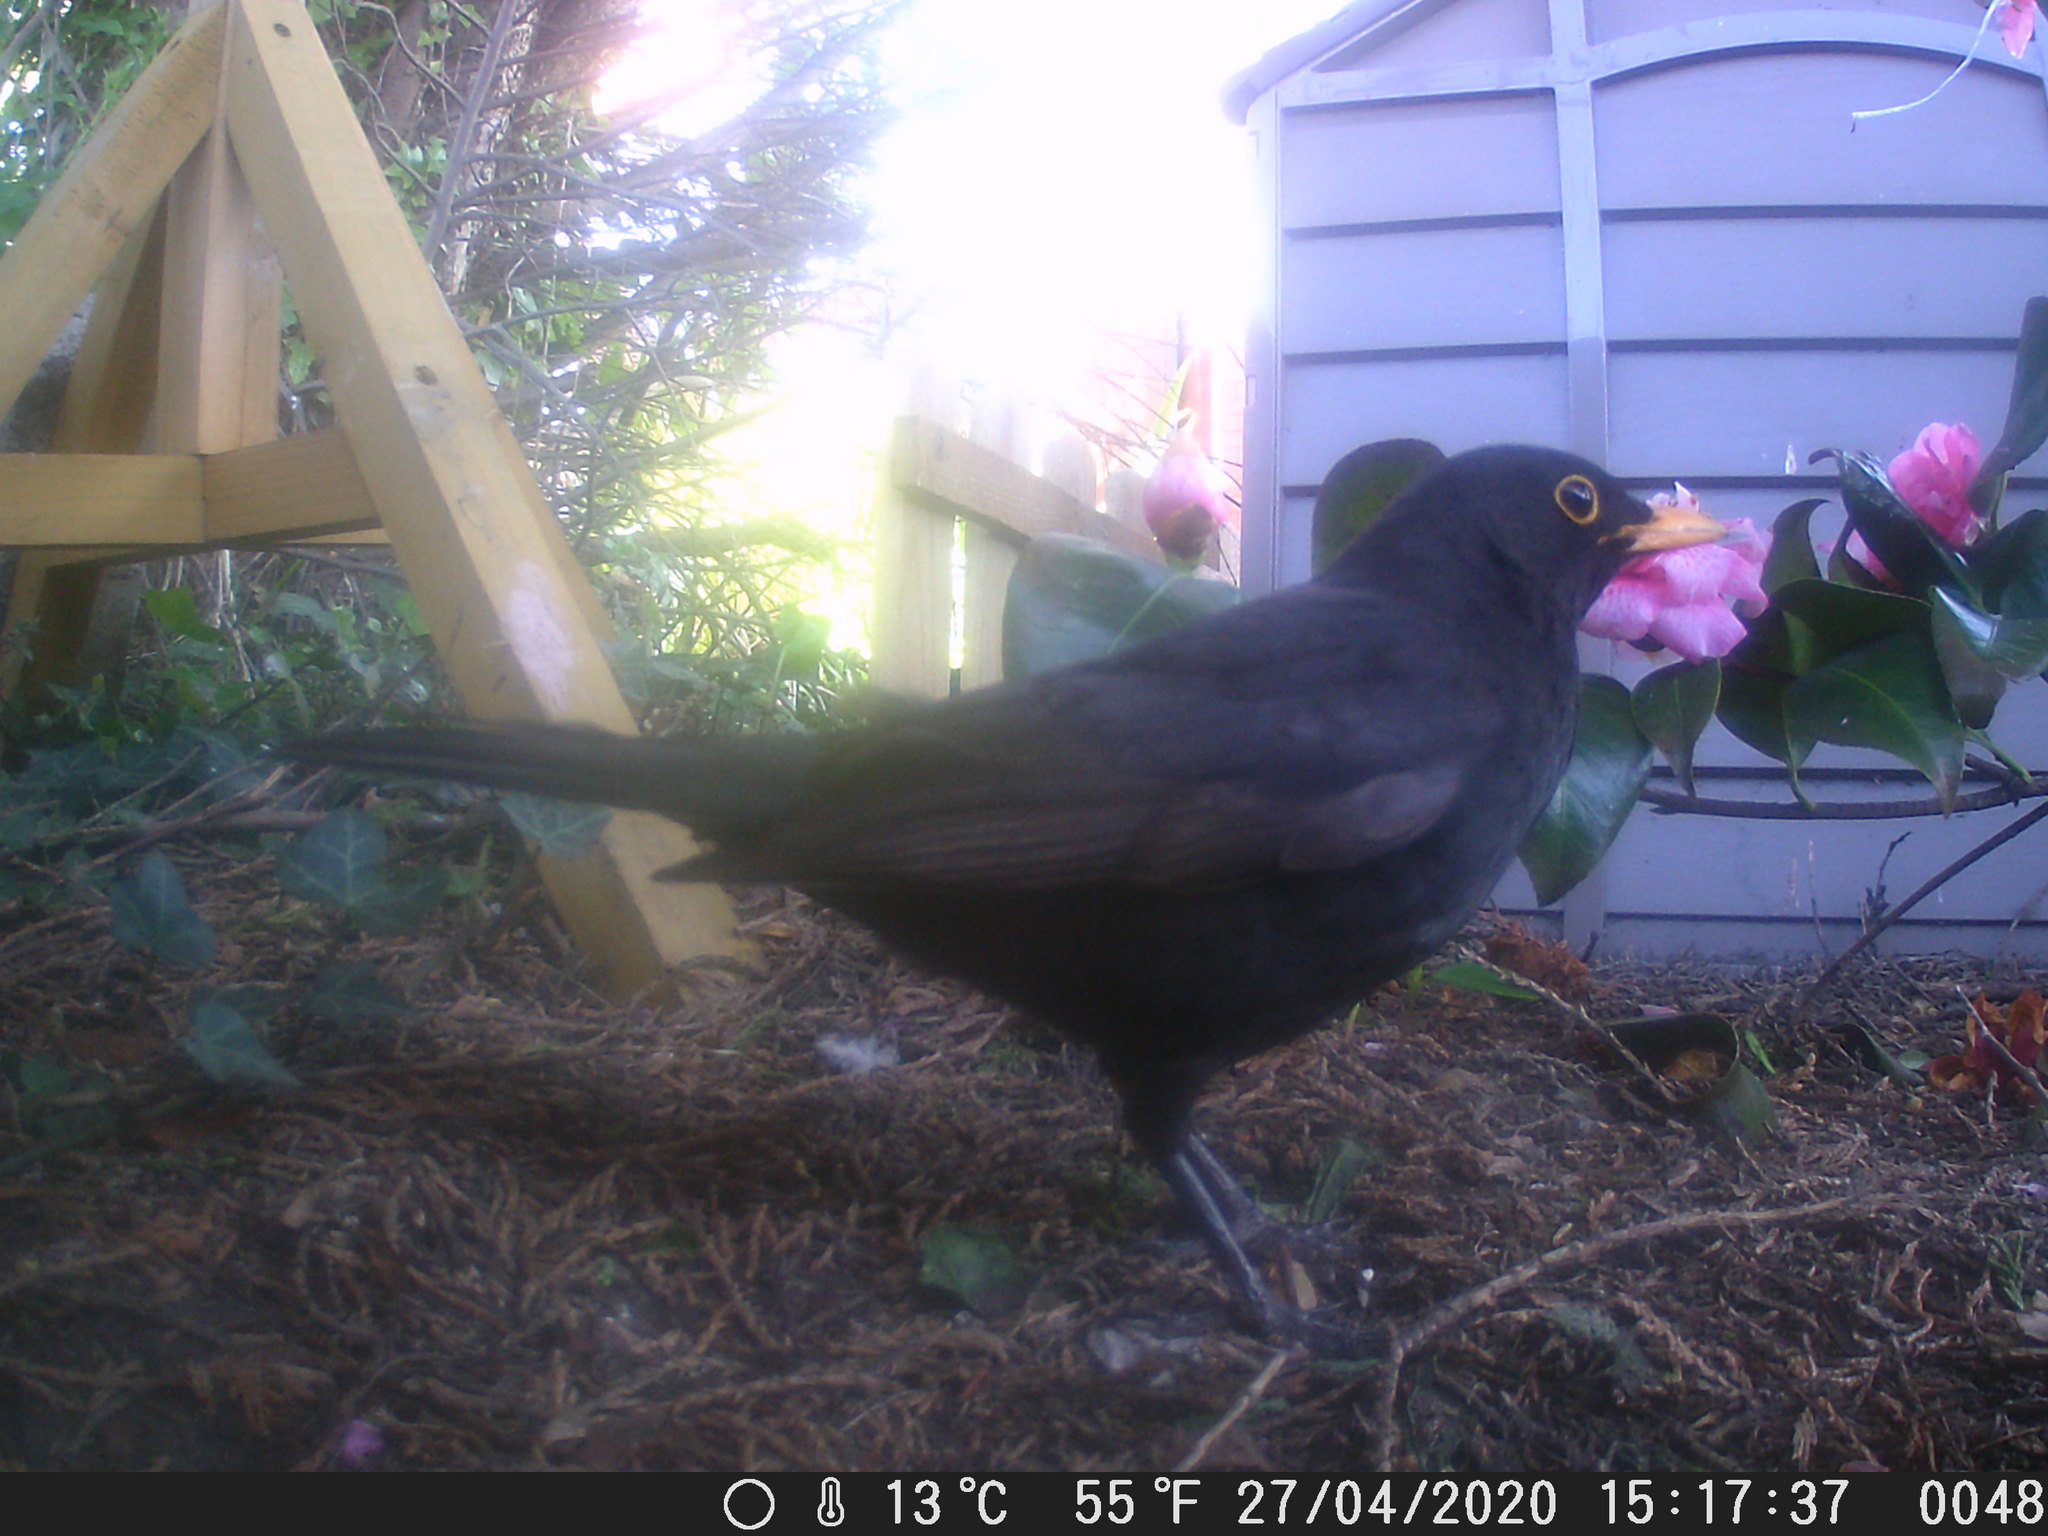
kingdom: Animalia
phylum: Chordata
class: Aves
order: Passeriformes
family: Turdidae
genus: Turdus
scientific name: Turdus merula
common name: Common blackbird
